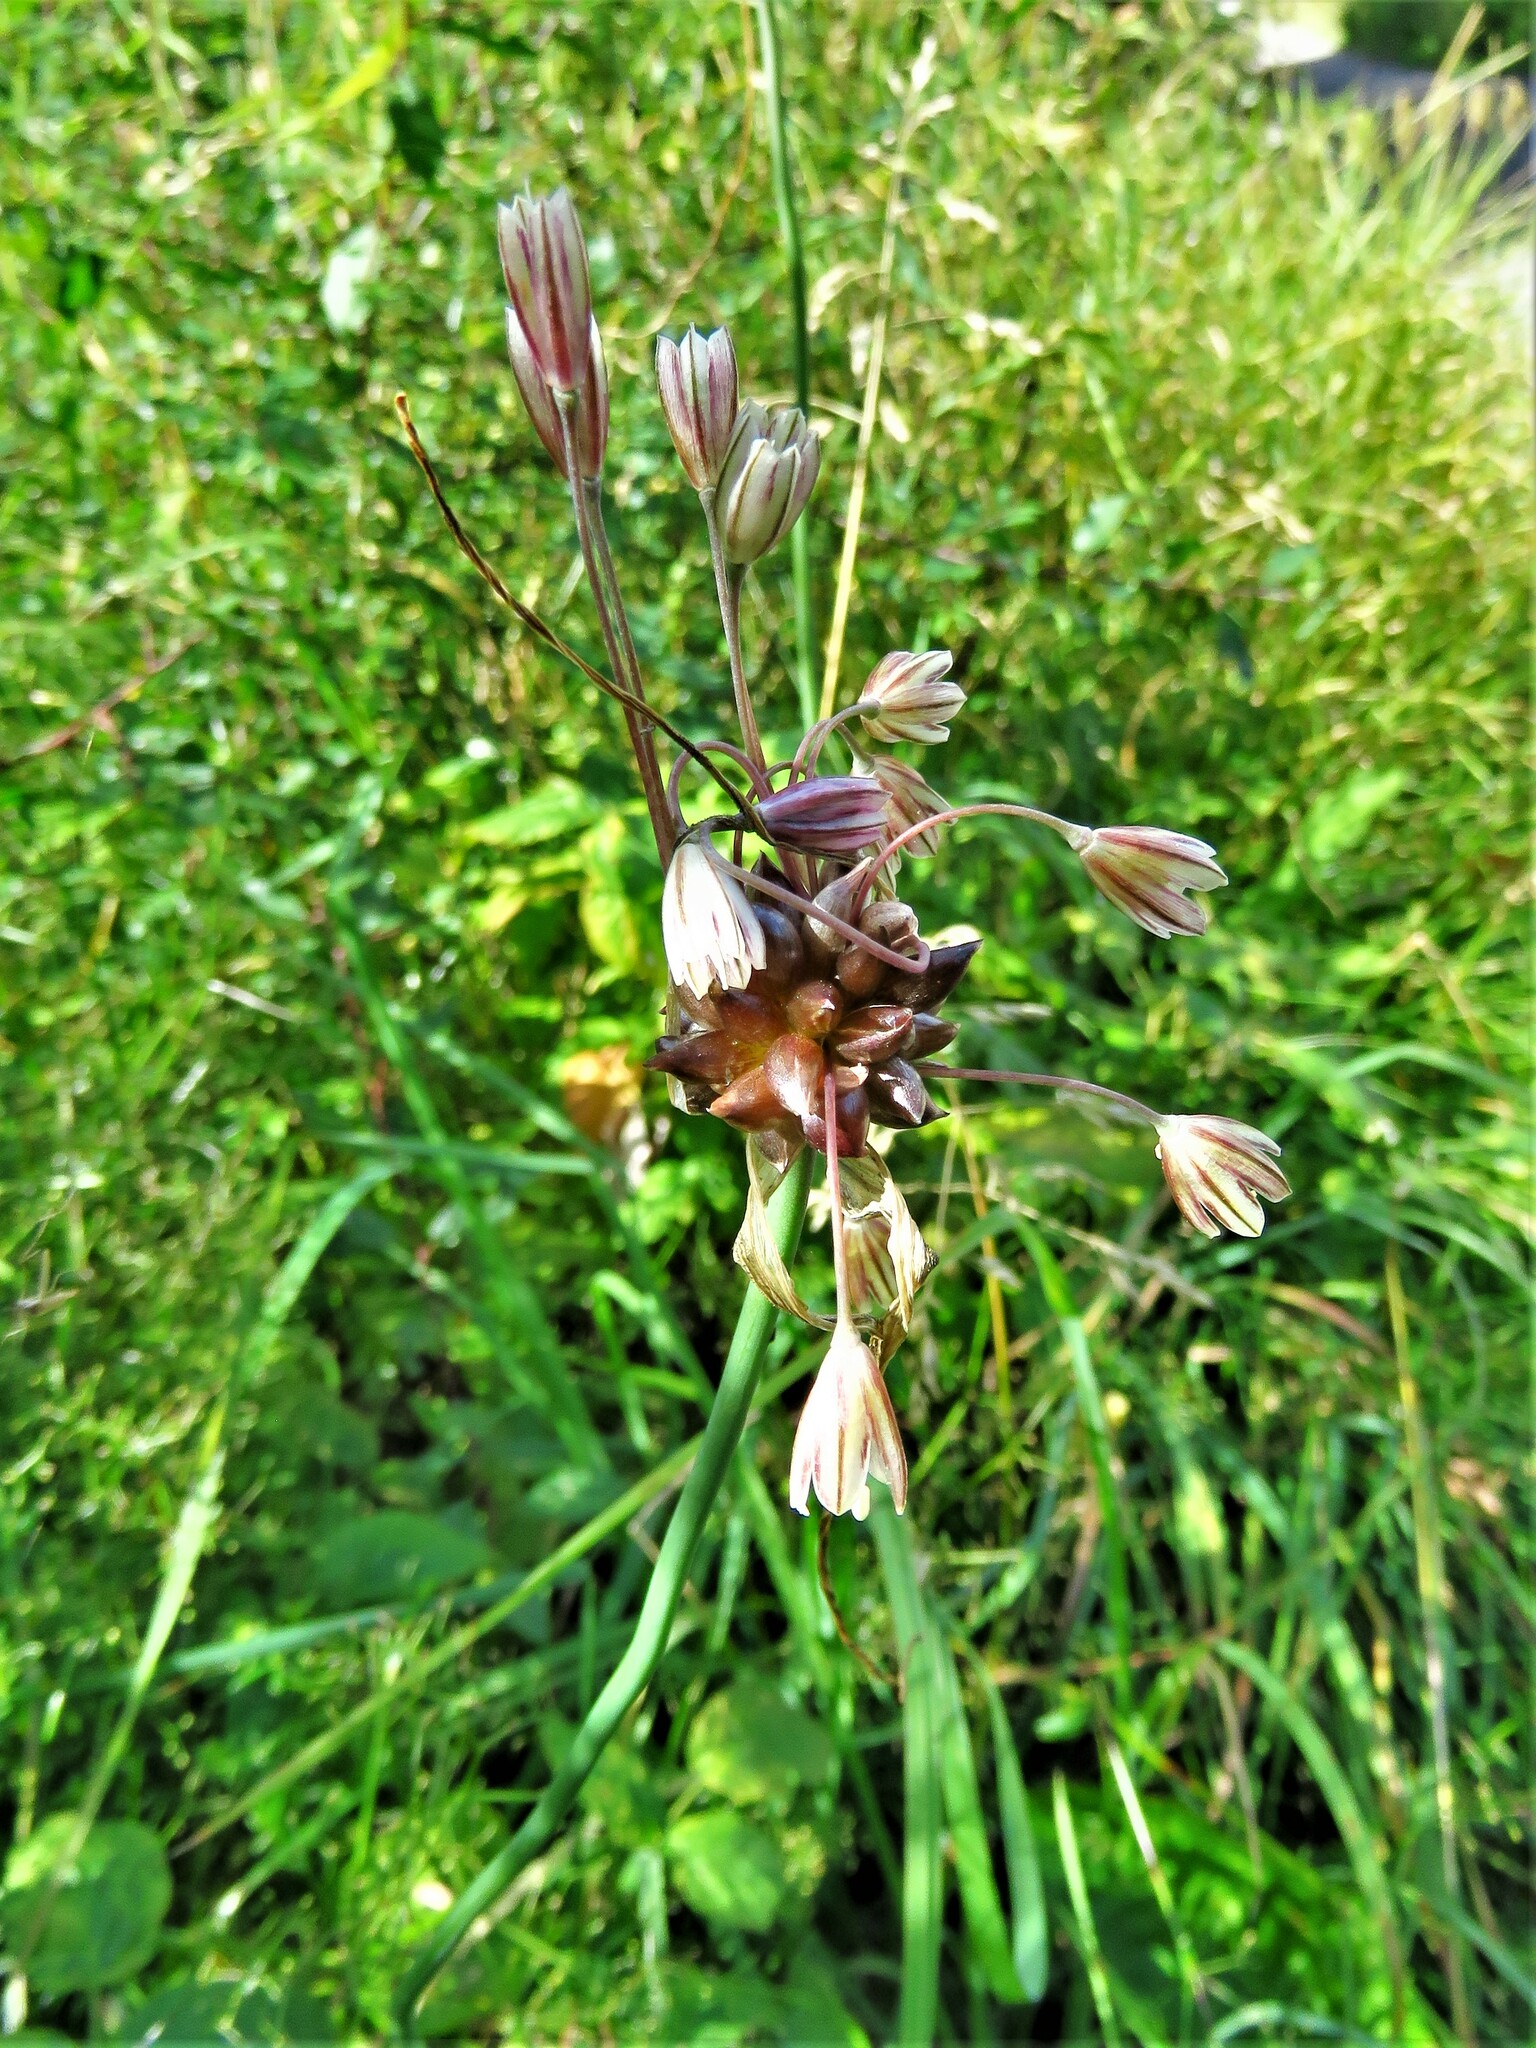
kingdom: Plantae
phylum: Tracheophyta
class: Liliopsida
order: Asparagales
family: Amaryllidaceae
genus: Allium
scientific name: Allium oleraceum
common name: Field garlic
